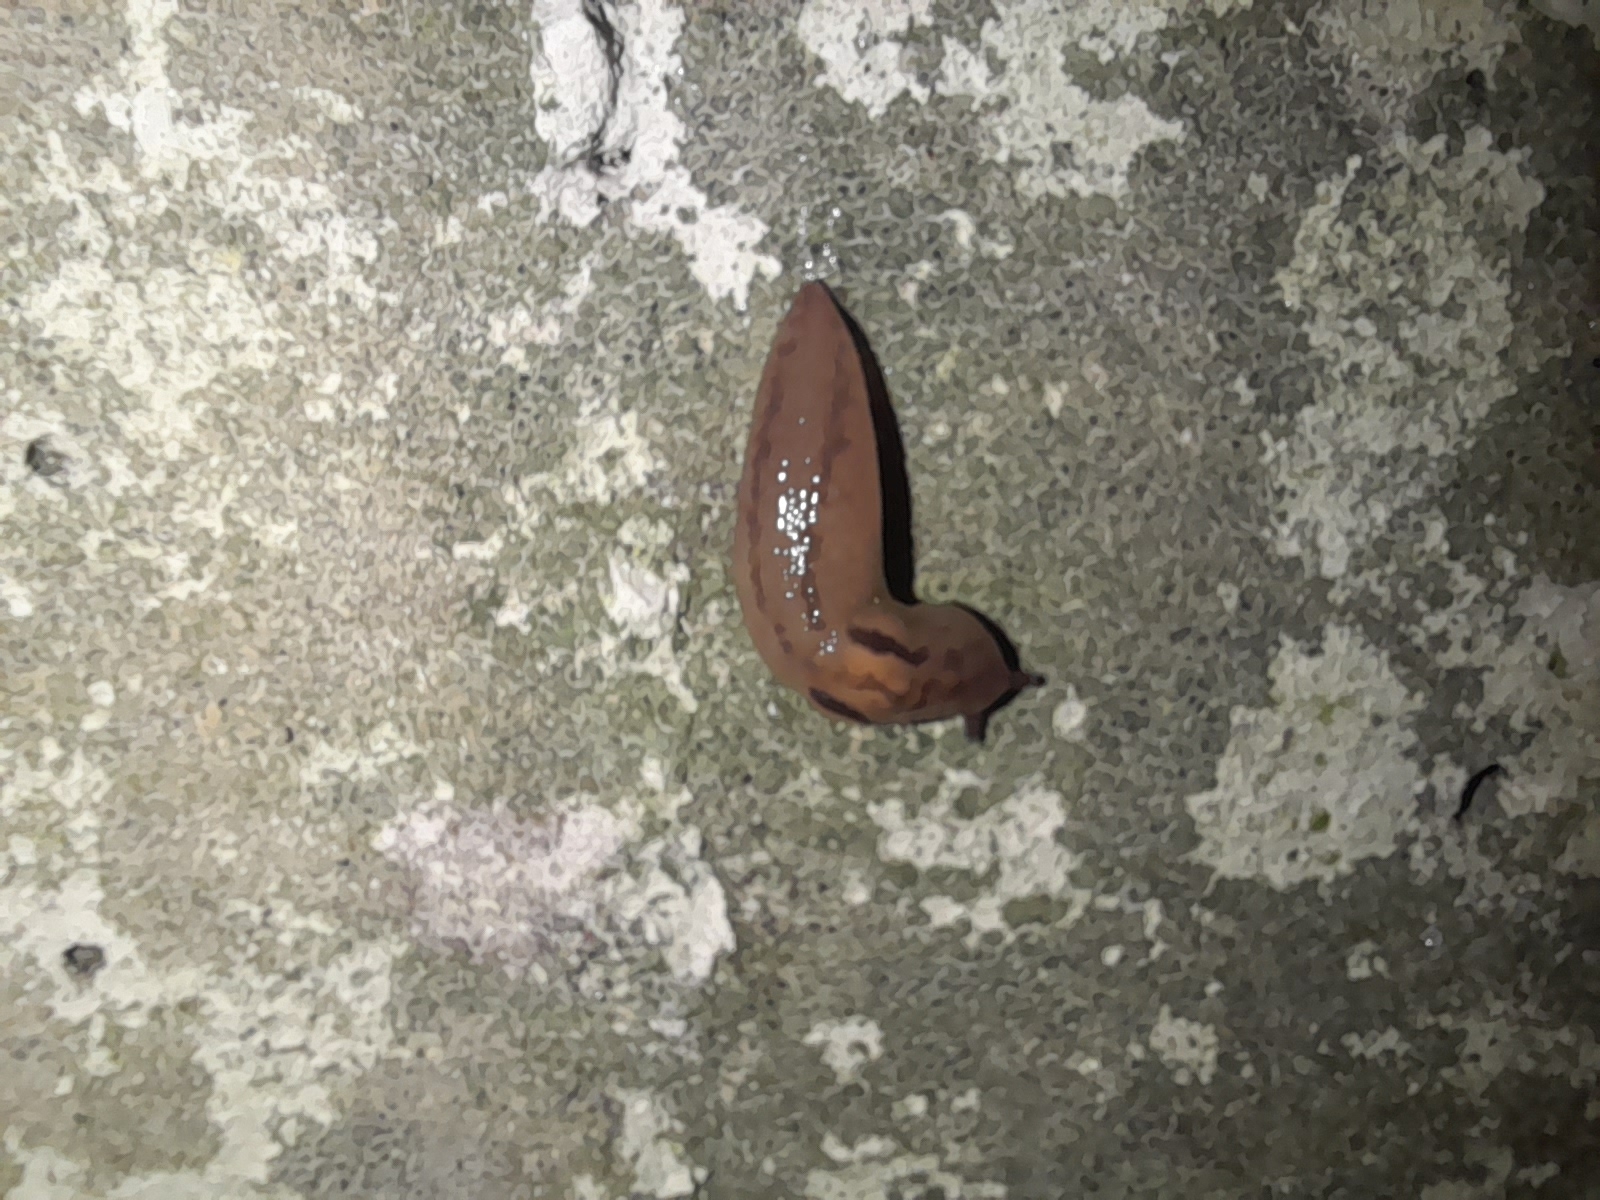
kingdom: Animalia
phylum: Mollusca
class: Gastropoda
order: Stylommatophora
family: Limacidae
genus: Ambigolimax
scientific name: Ambigolimax valentianus
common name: Greenhouse slug
